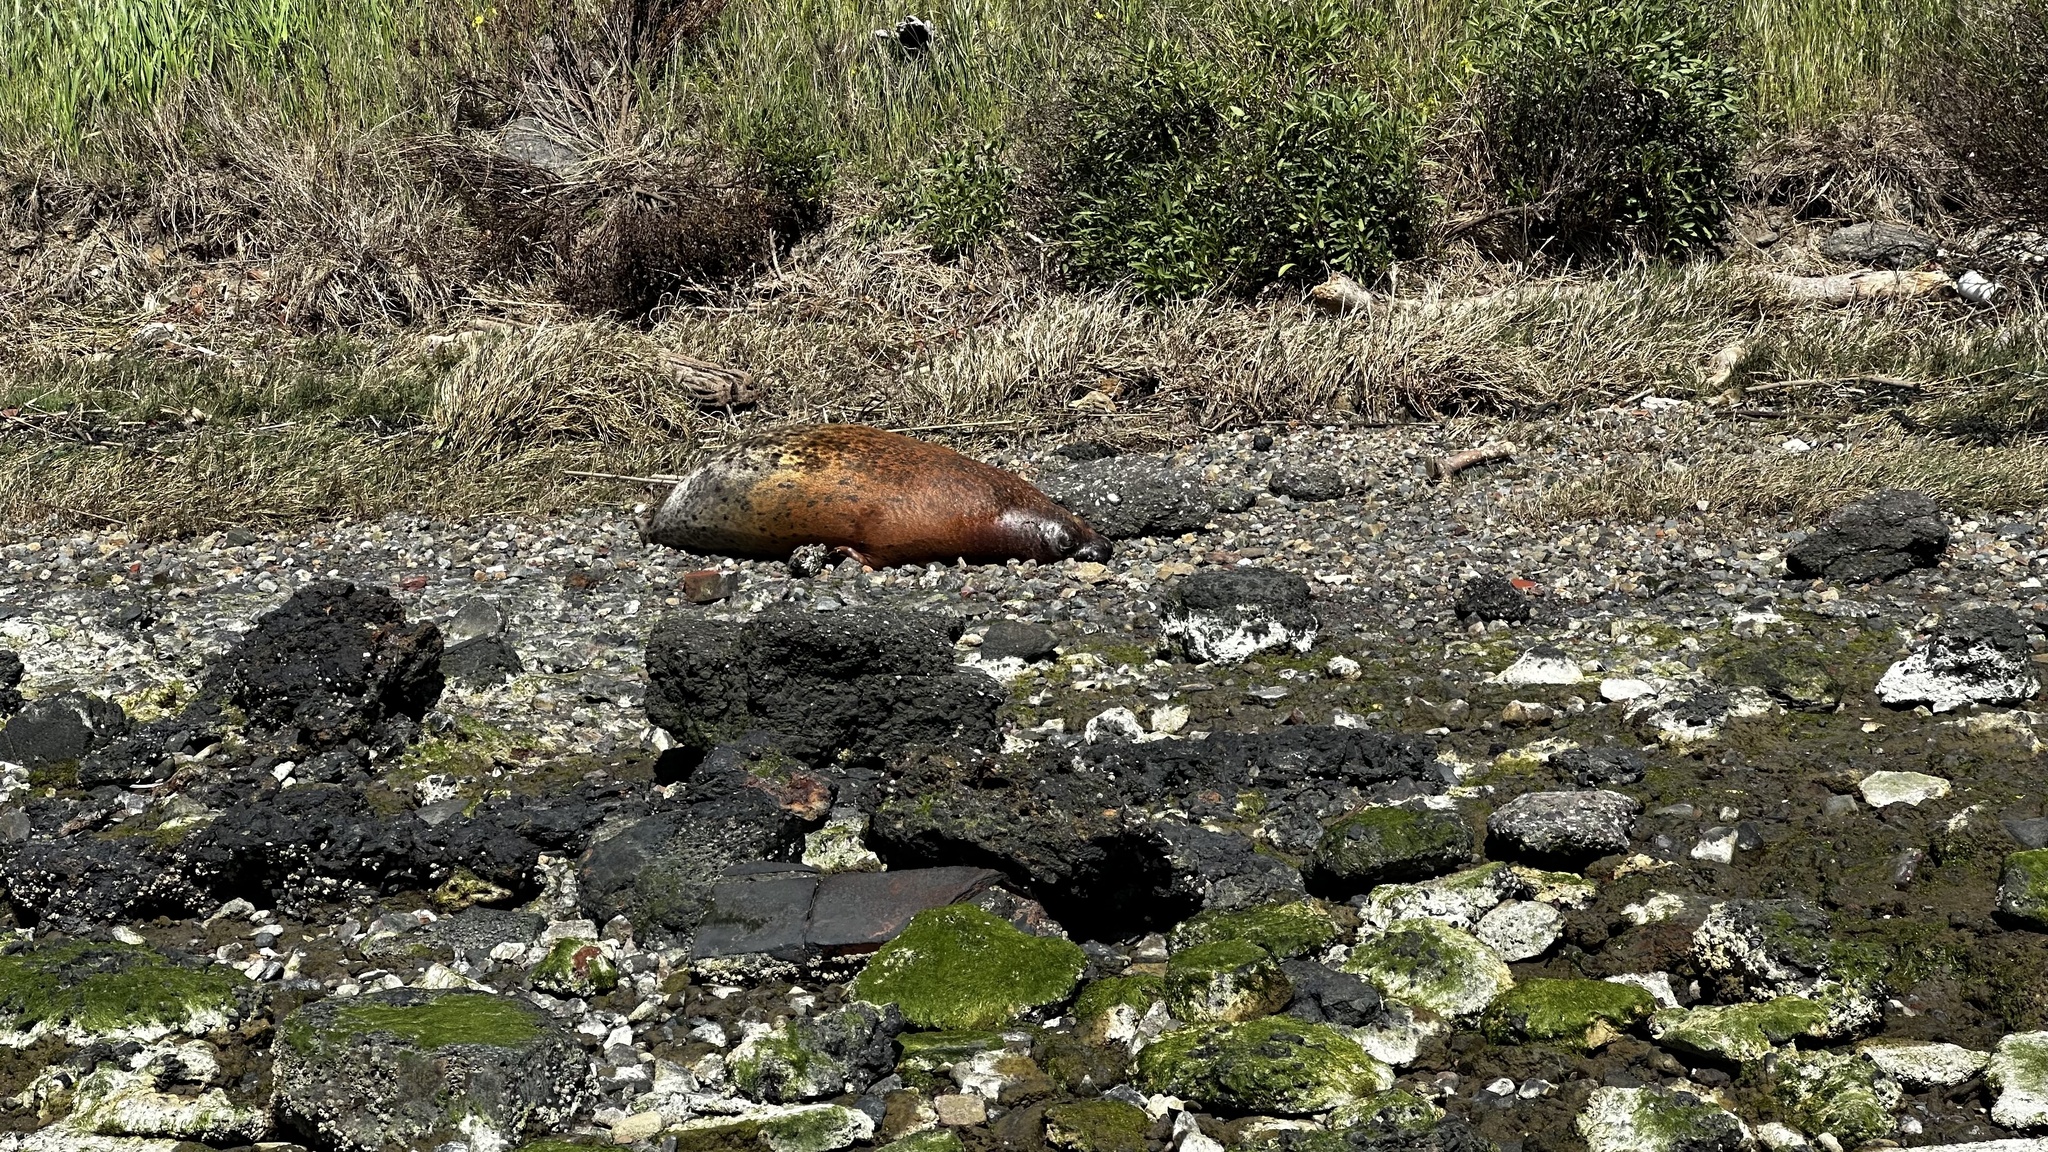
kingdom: Animalia
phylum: Chordata
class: Mammalia
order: Carnivora
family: Phocidae
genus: Phoca
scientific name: Phoca vitulina
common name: Harbor seal
